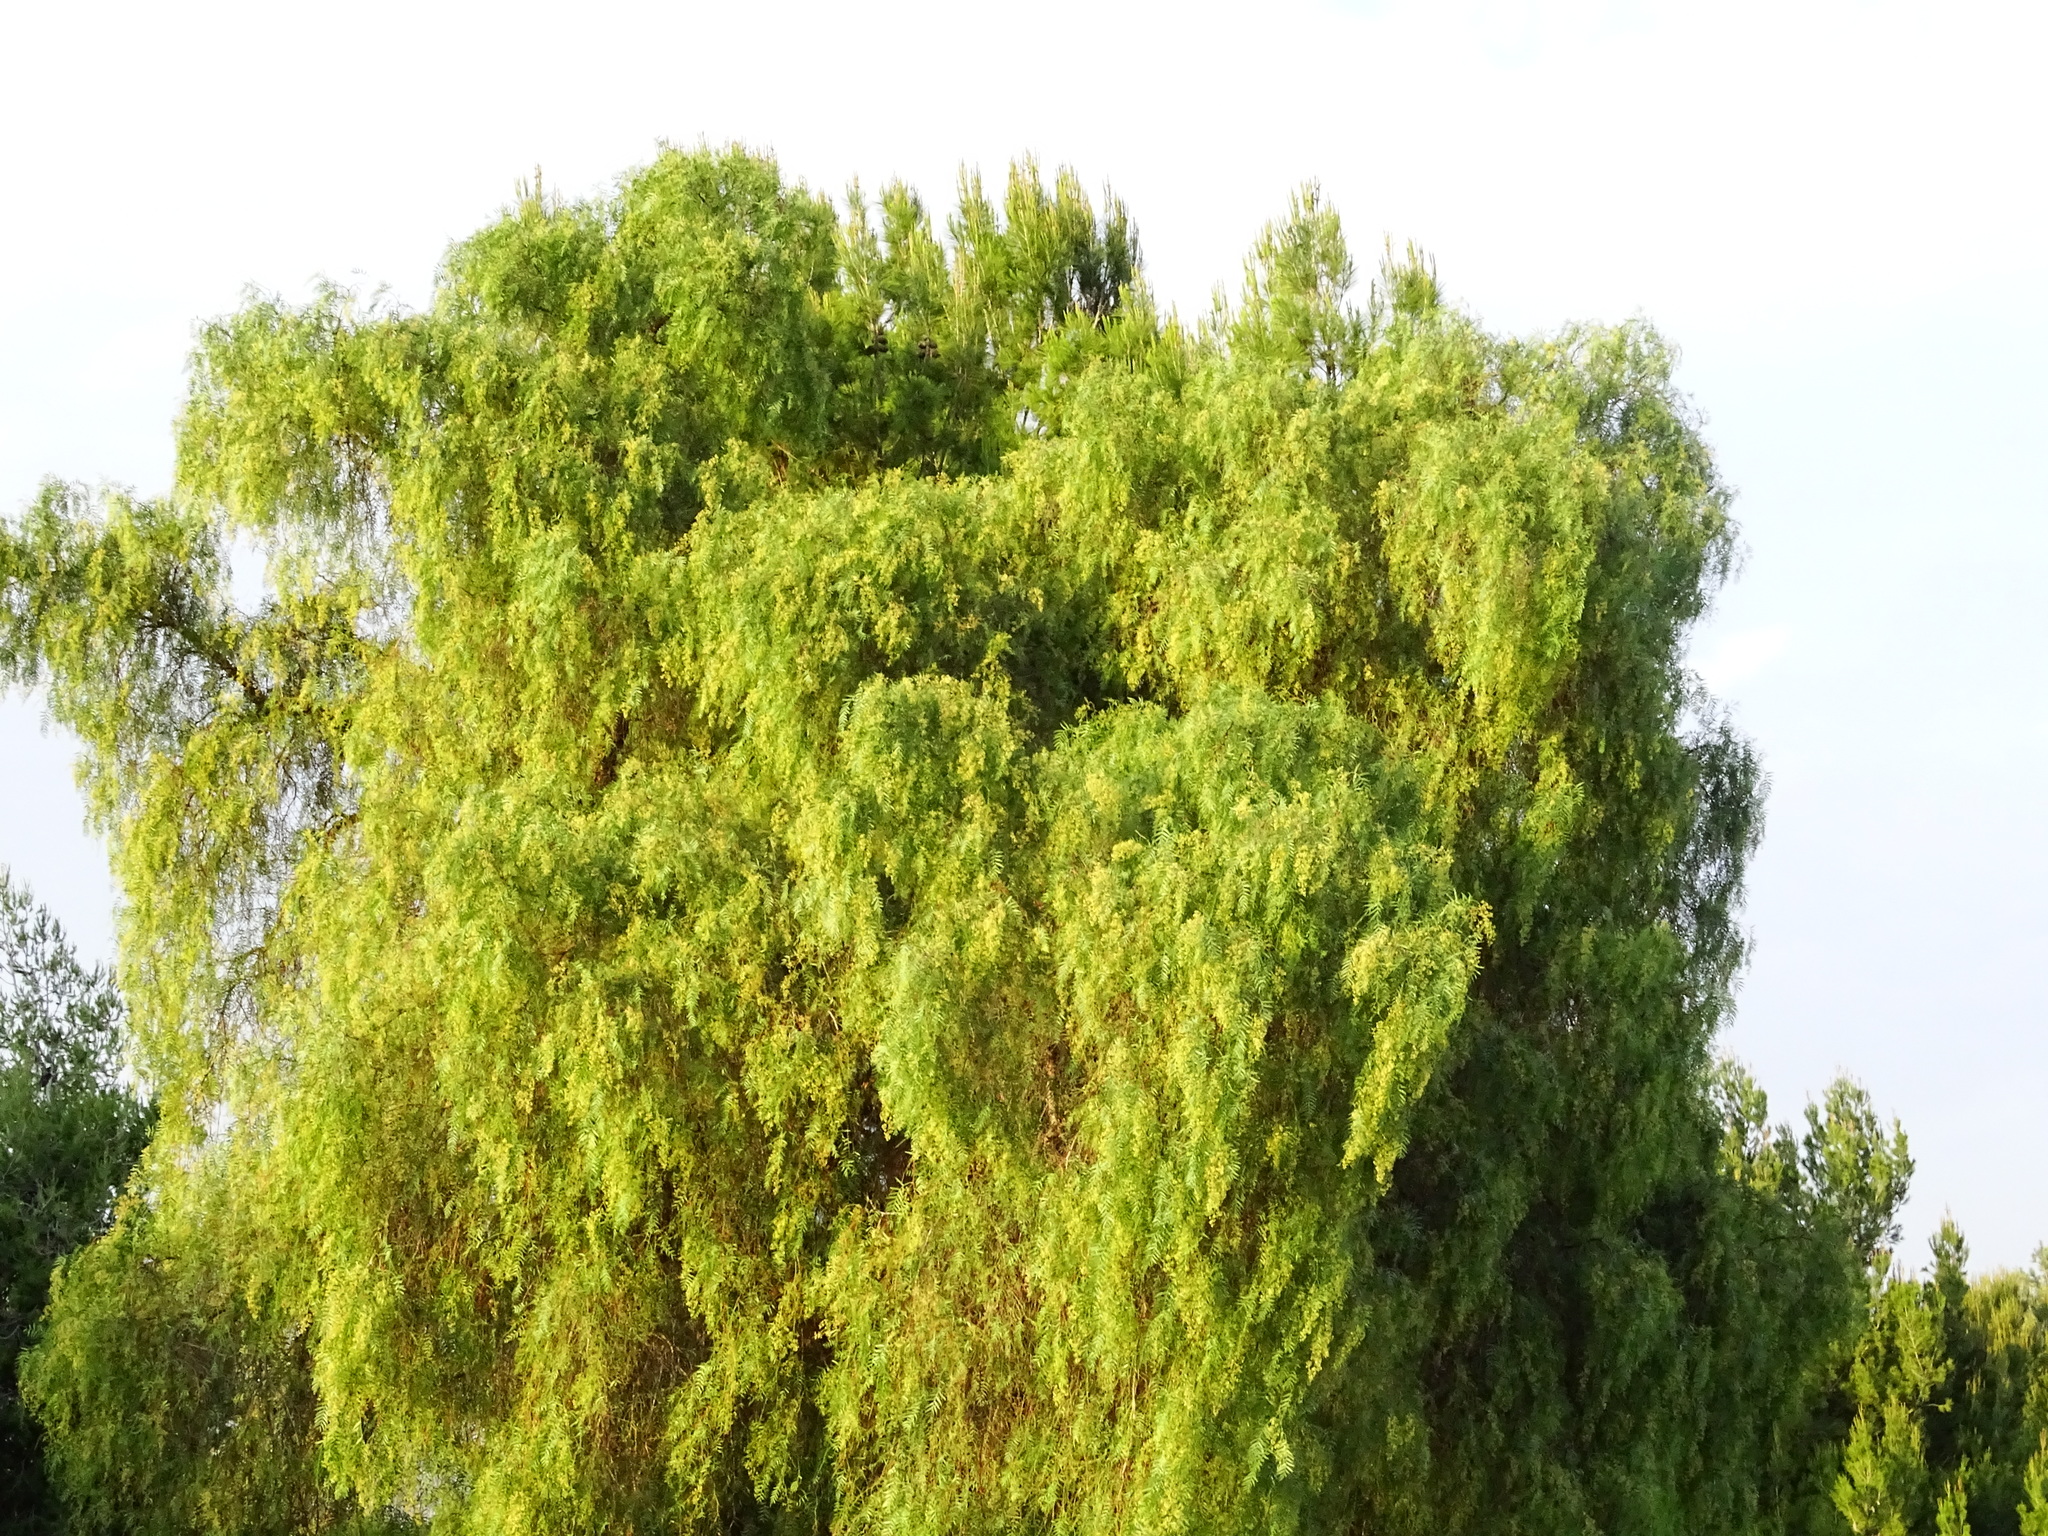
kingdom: Plantae
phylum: Tracheophyta
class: Magnoliopsida
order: Sapindales
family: Anacardiaceae
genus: Schinus
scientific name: Schinus molle
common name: Peruvian peppertree
